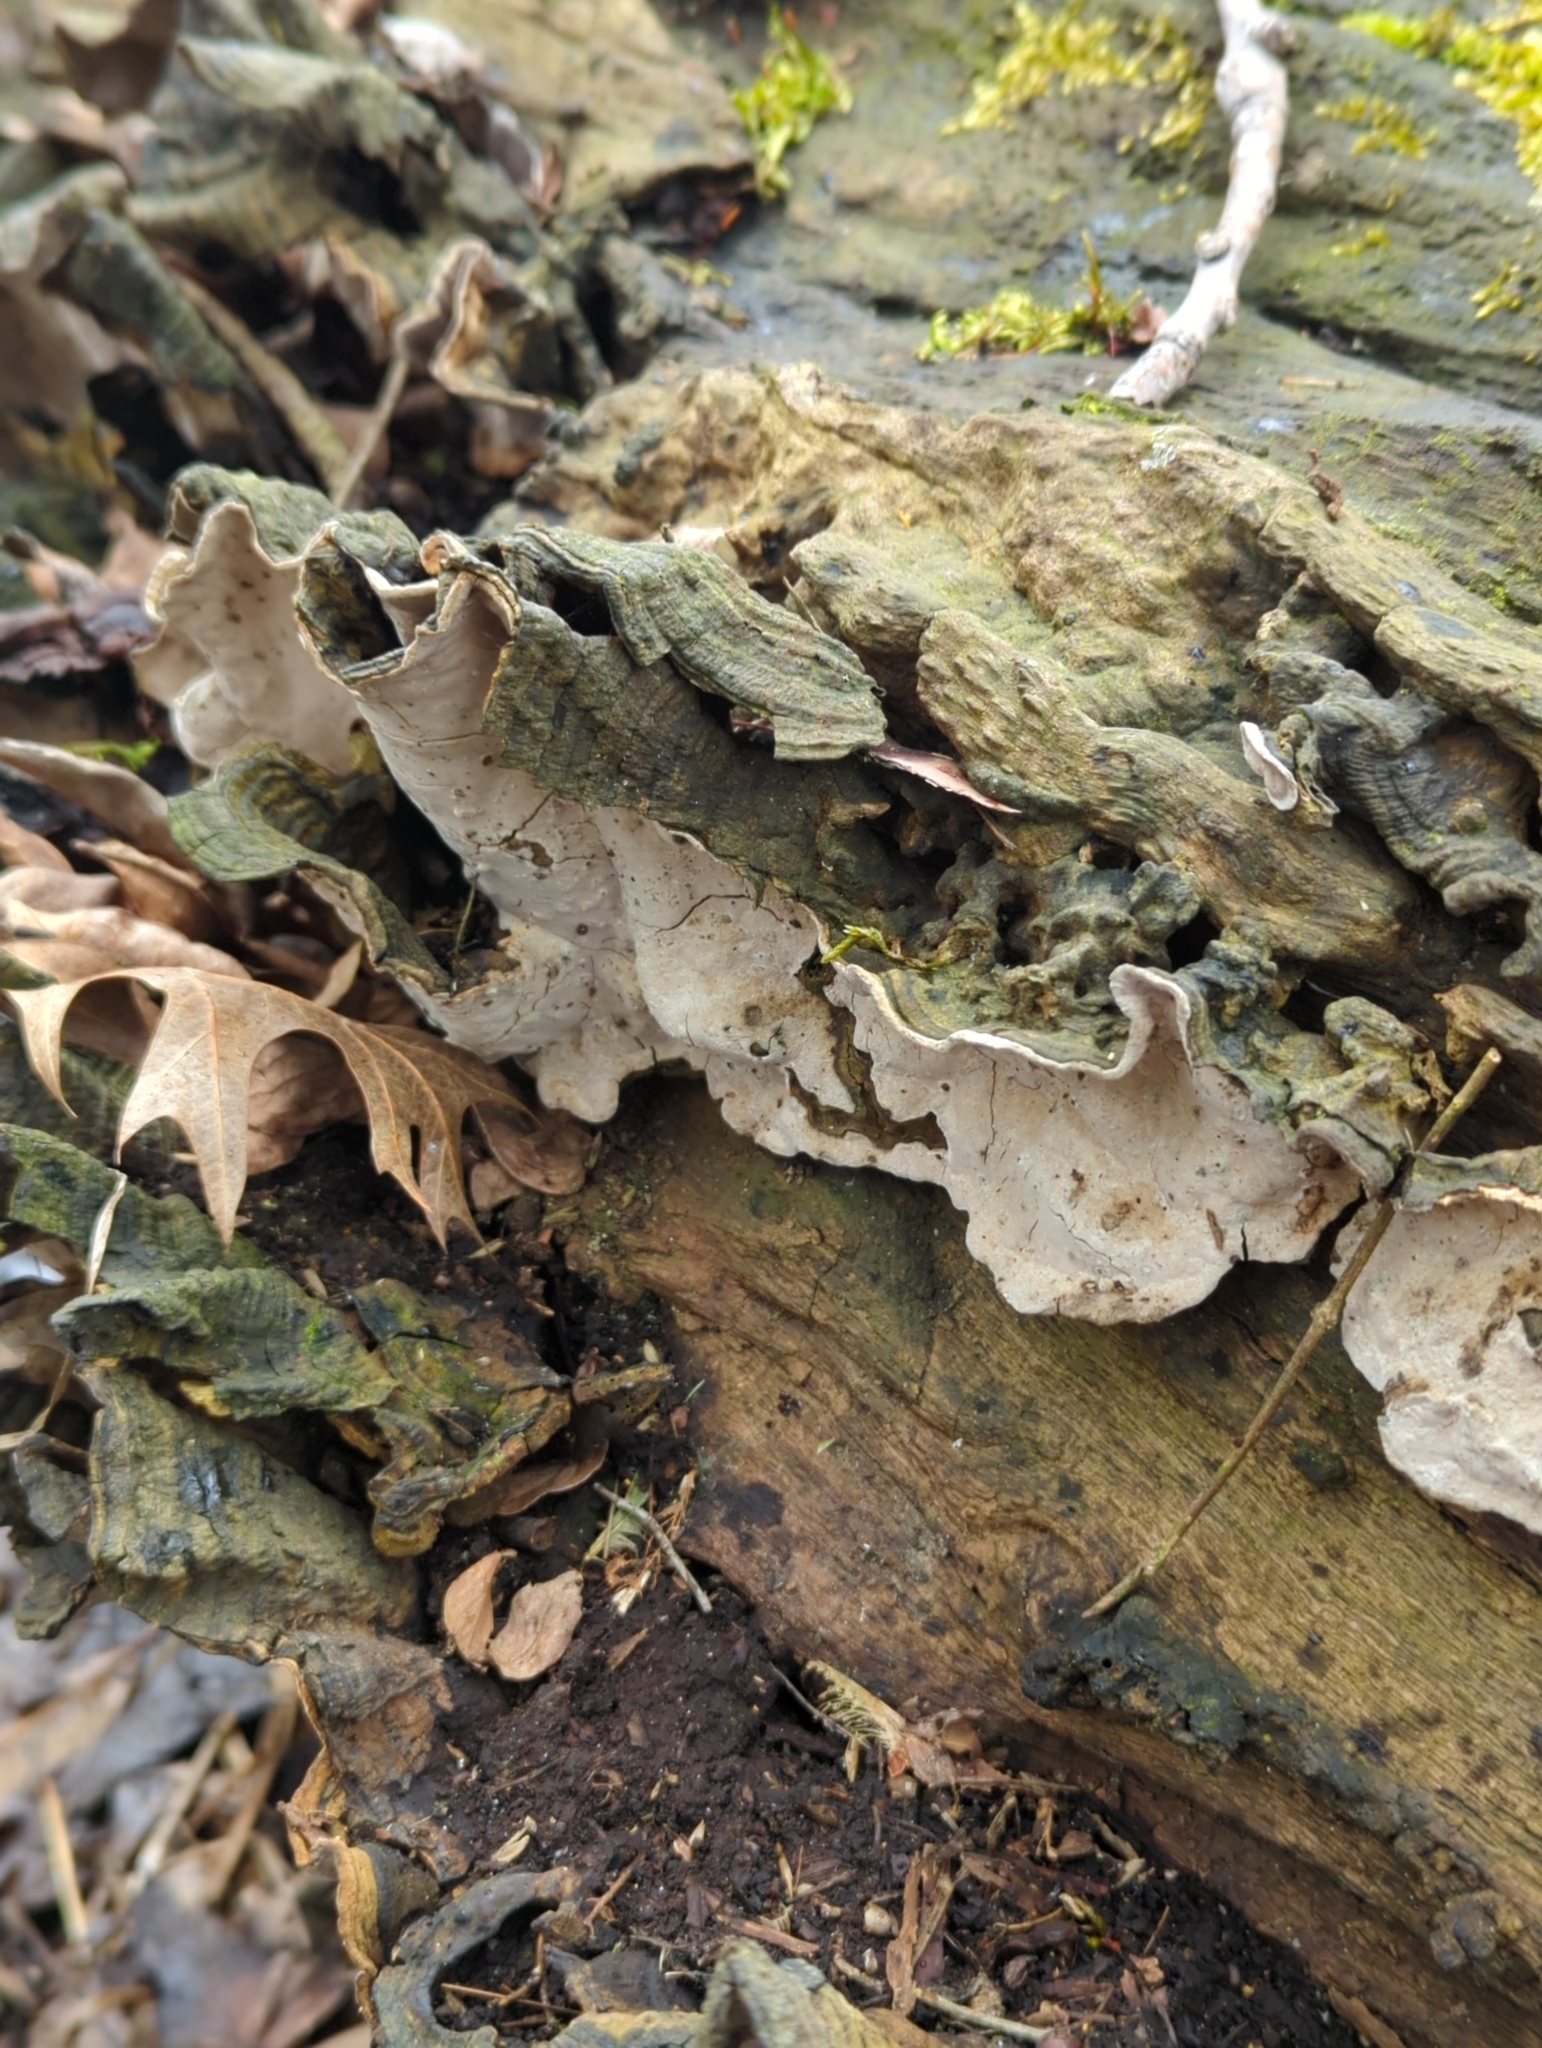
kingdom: Fungi
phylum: Basidiomycota
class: Agaricomycetes
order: Russulales
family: Stereaceae
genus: Xylobolus
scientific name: Xylobolus subpileatus
